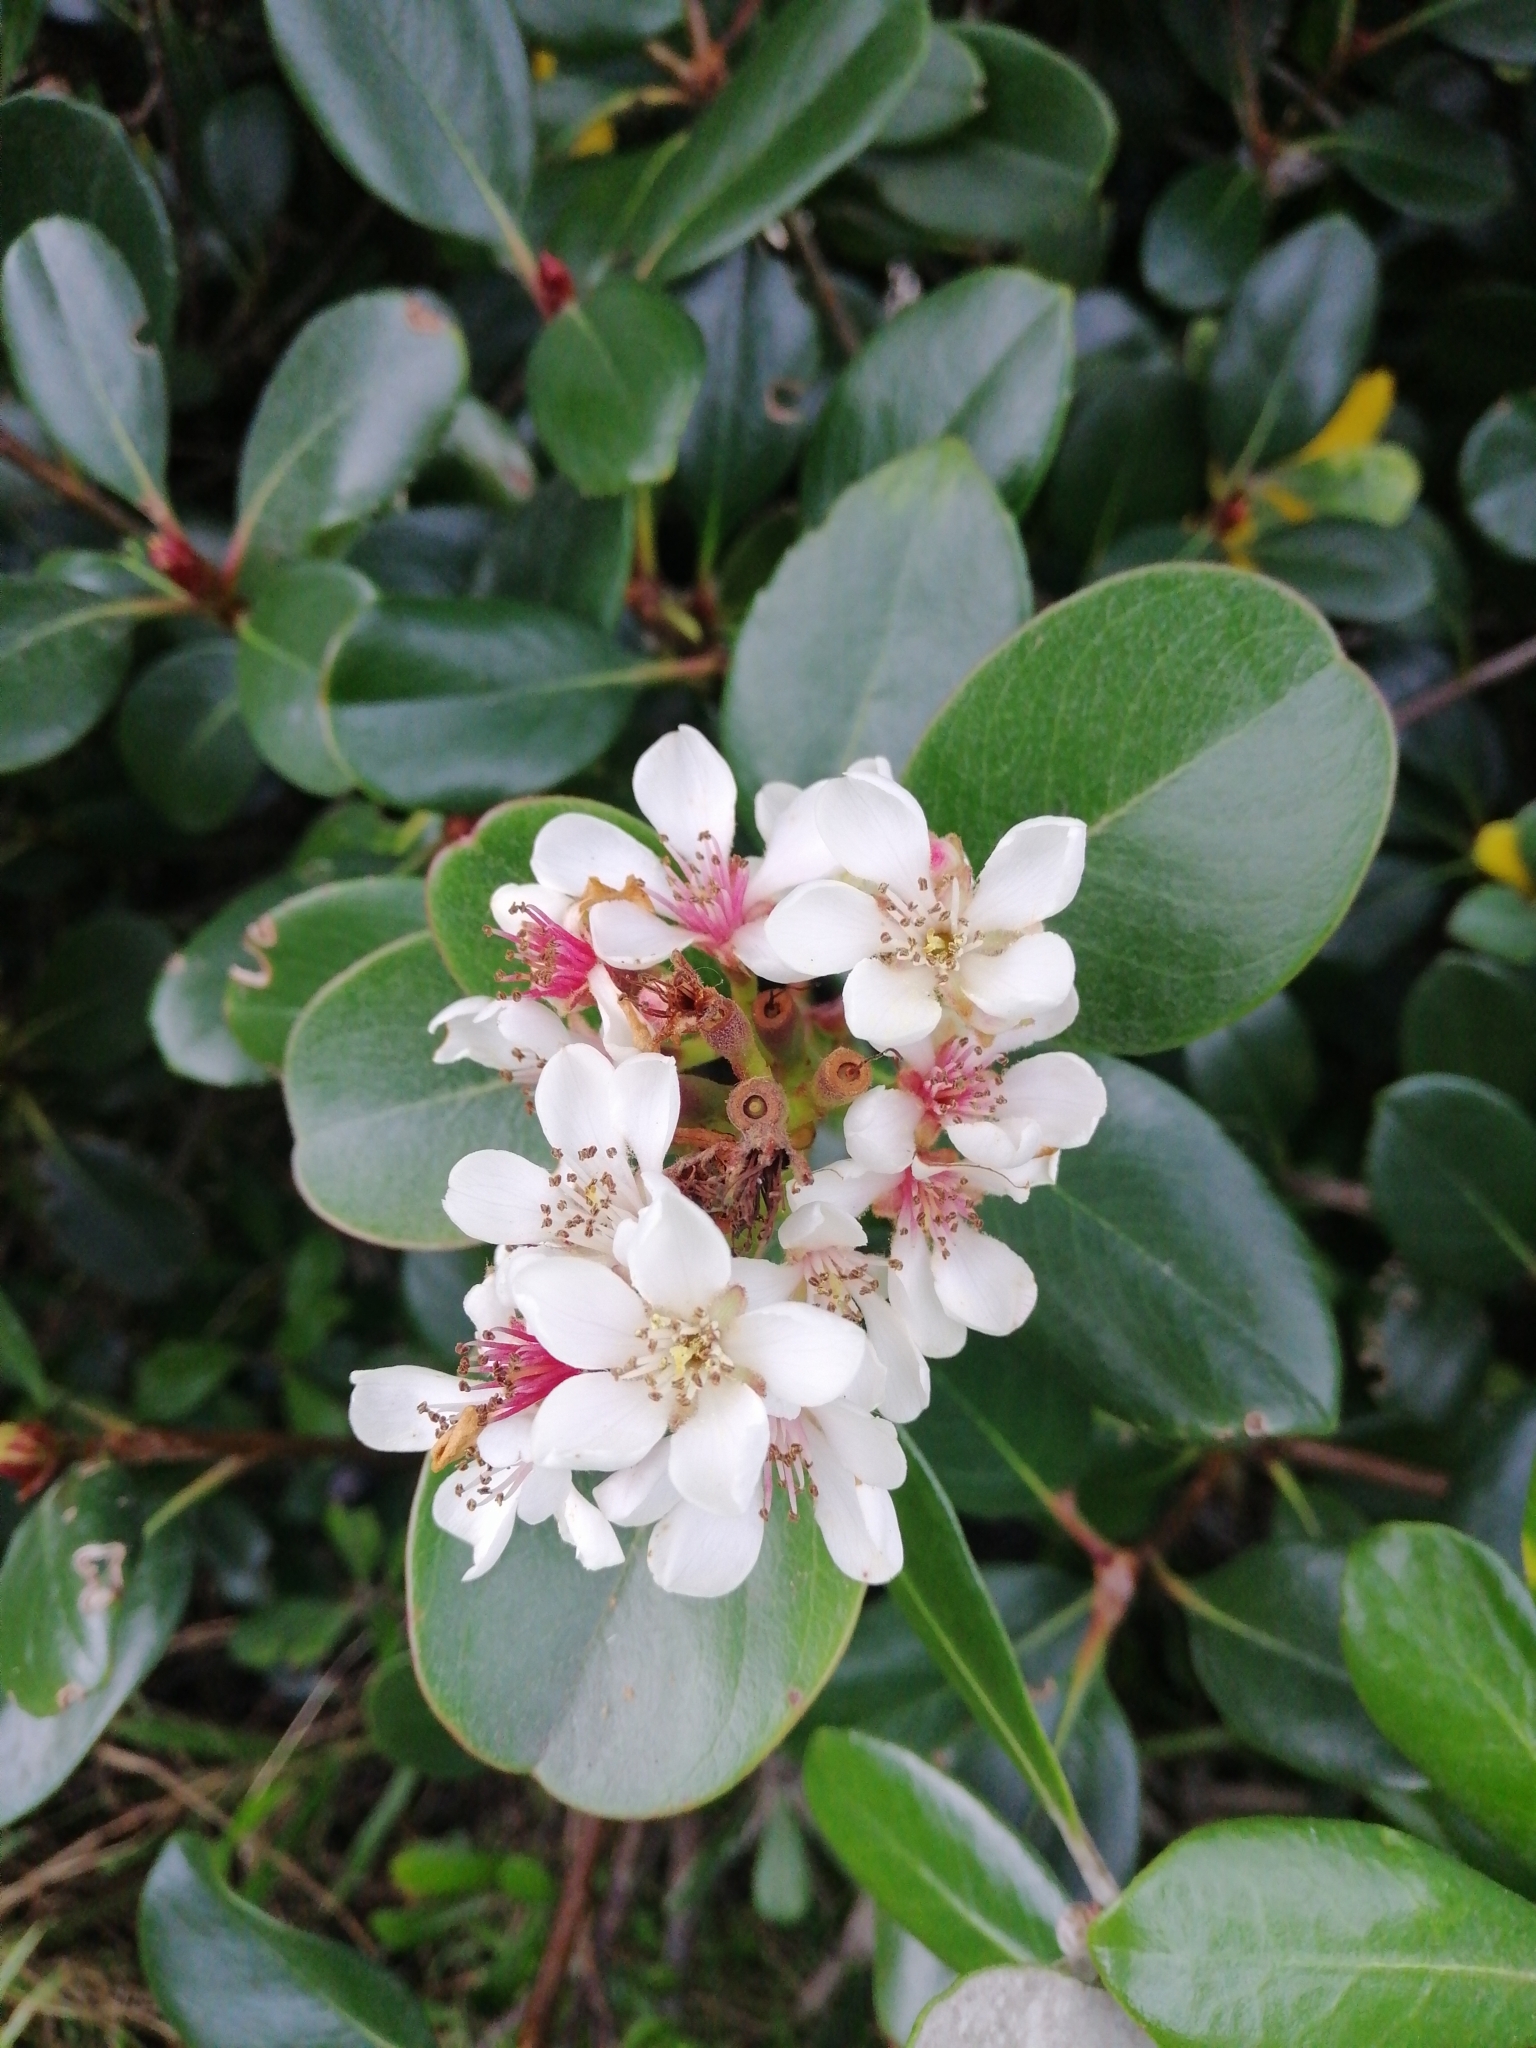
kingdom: Plantae
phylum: Tracheophyta
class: Magnoliopsida
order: Rosales
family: Rosaceae
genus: Rhaphiolepis
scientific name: Rhaphiolepis indica
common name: India-hawthorn
